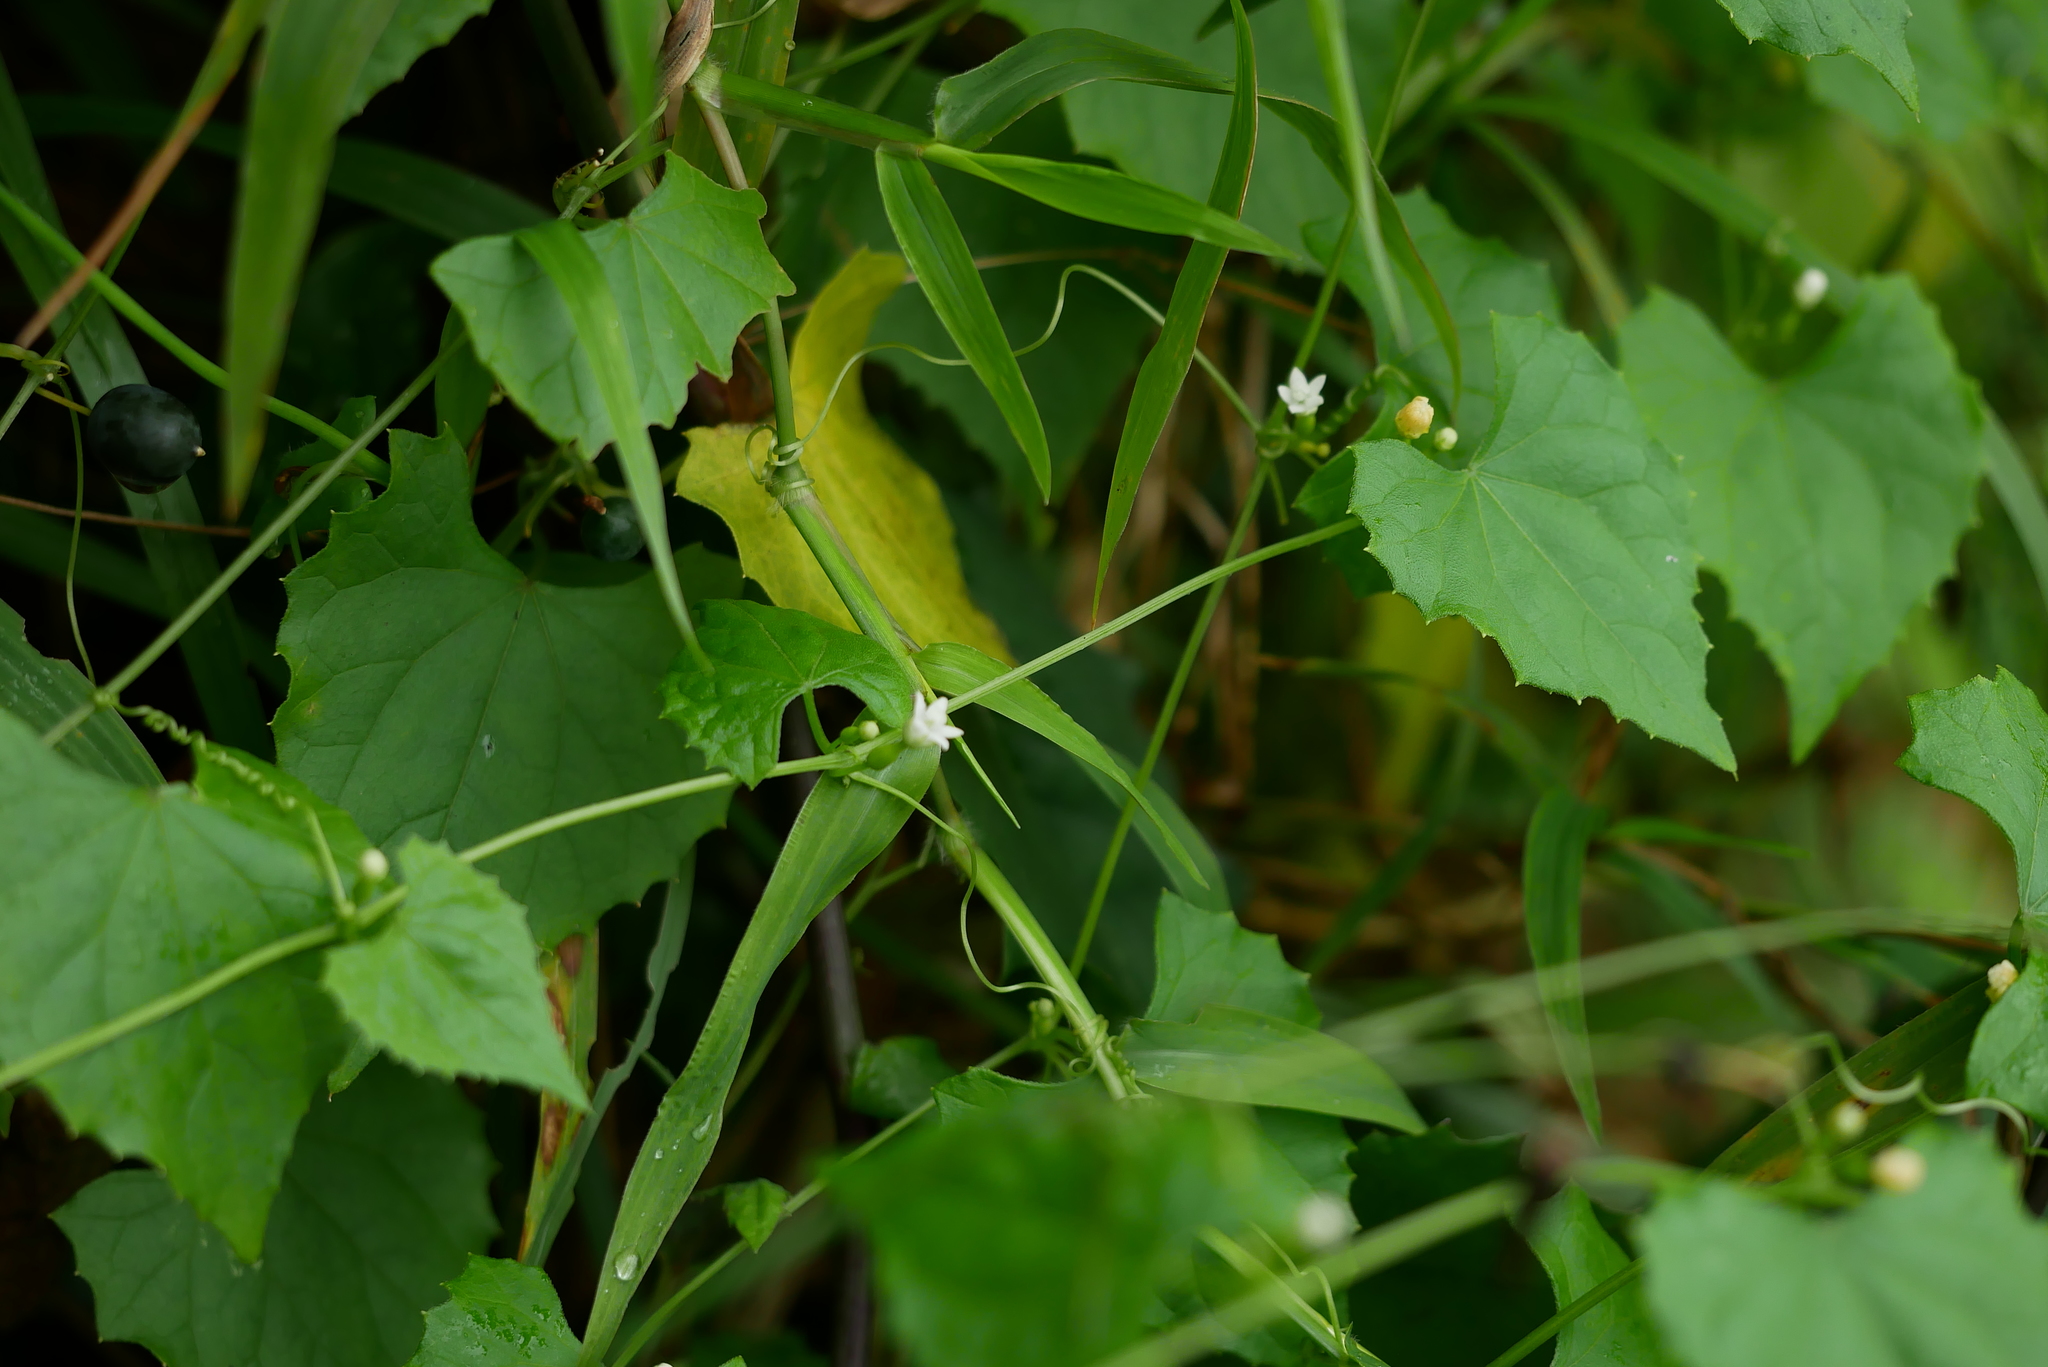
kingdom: Plantae
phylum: Tracheophyta
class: Magnoliopsida
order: Cucurbitales
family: Cucurbitaceae
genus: Zehneria
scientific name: Zehneria guamensis
